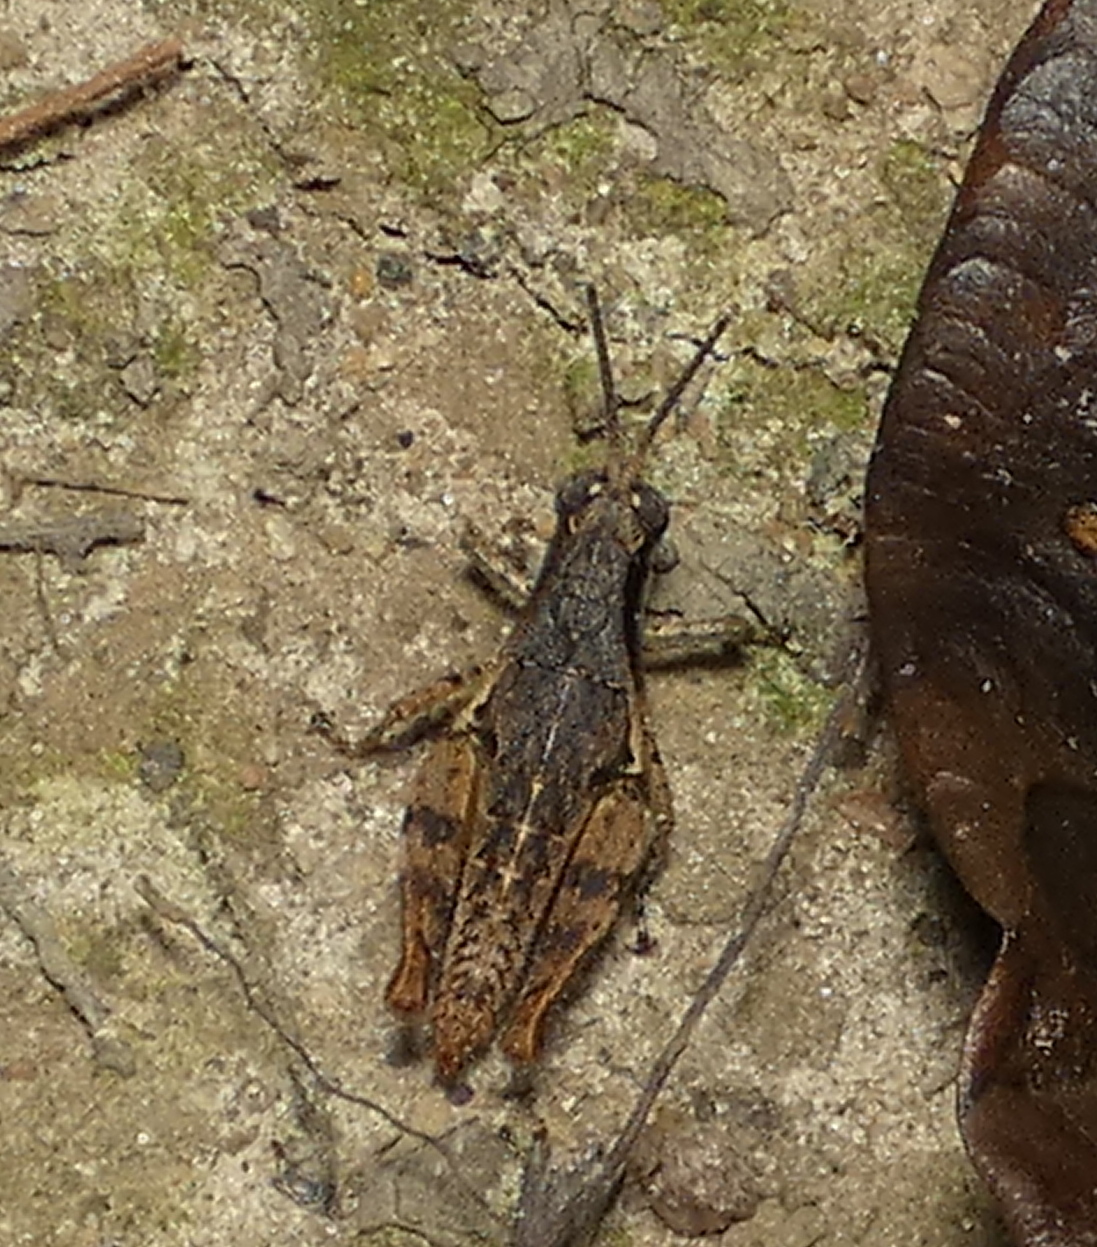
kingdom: Animalia
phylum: Arthropoda
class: Insecta
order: Orthoptera
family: Acrididae
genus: Eujivarus
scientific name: Eujivarus meridionalis
